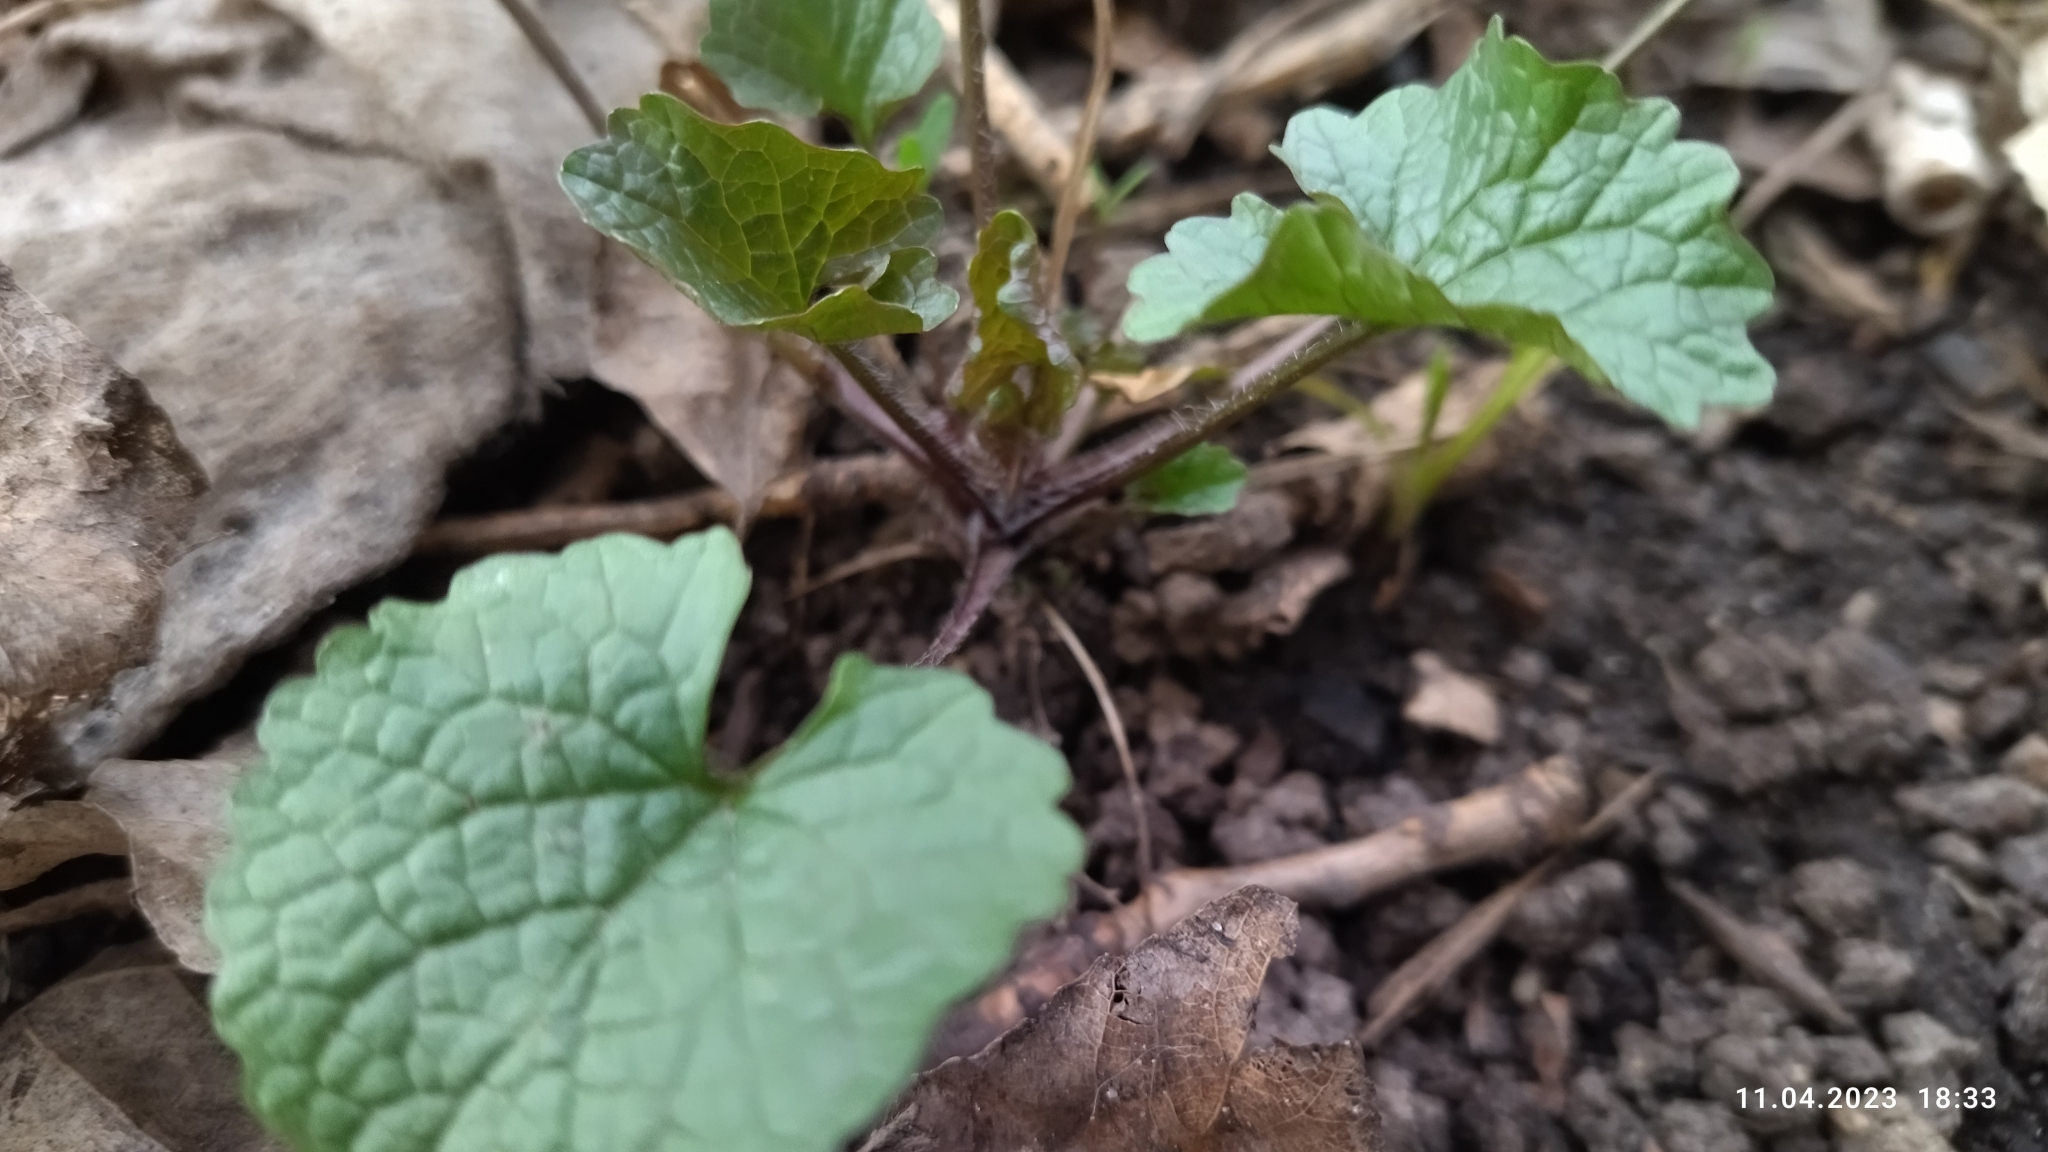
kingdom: Plantae
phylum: Tracheophyta
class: Magnoliopsida
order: Brassicales
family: Brassicaceae
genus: Alliaria
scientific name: Alliaria petiolata
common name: Garlic mustard
